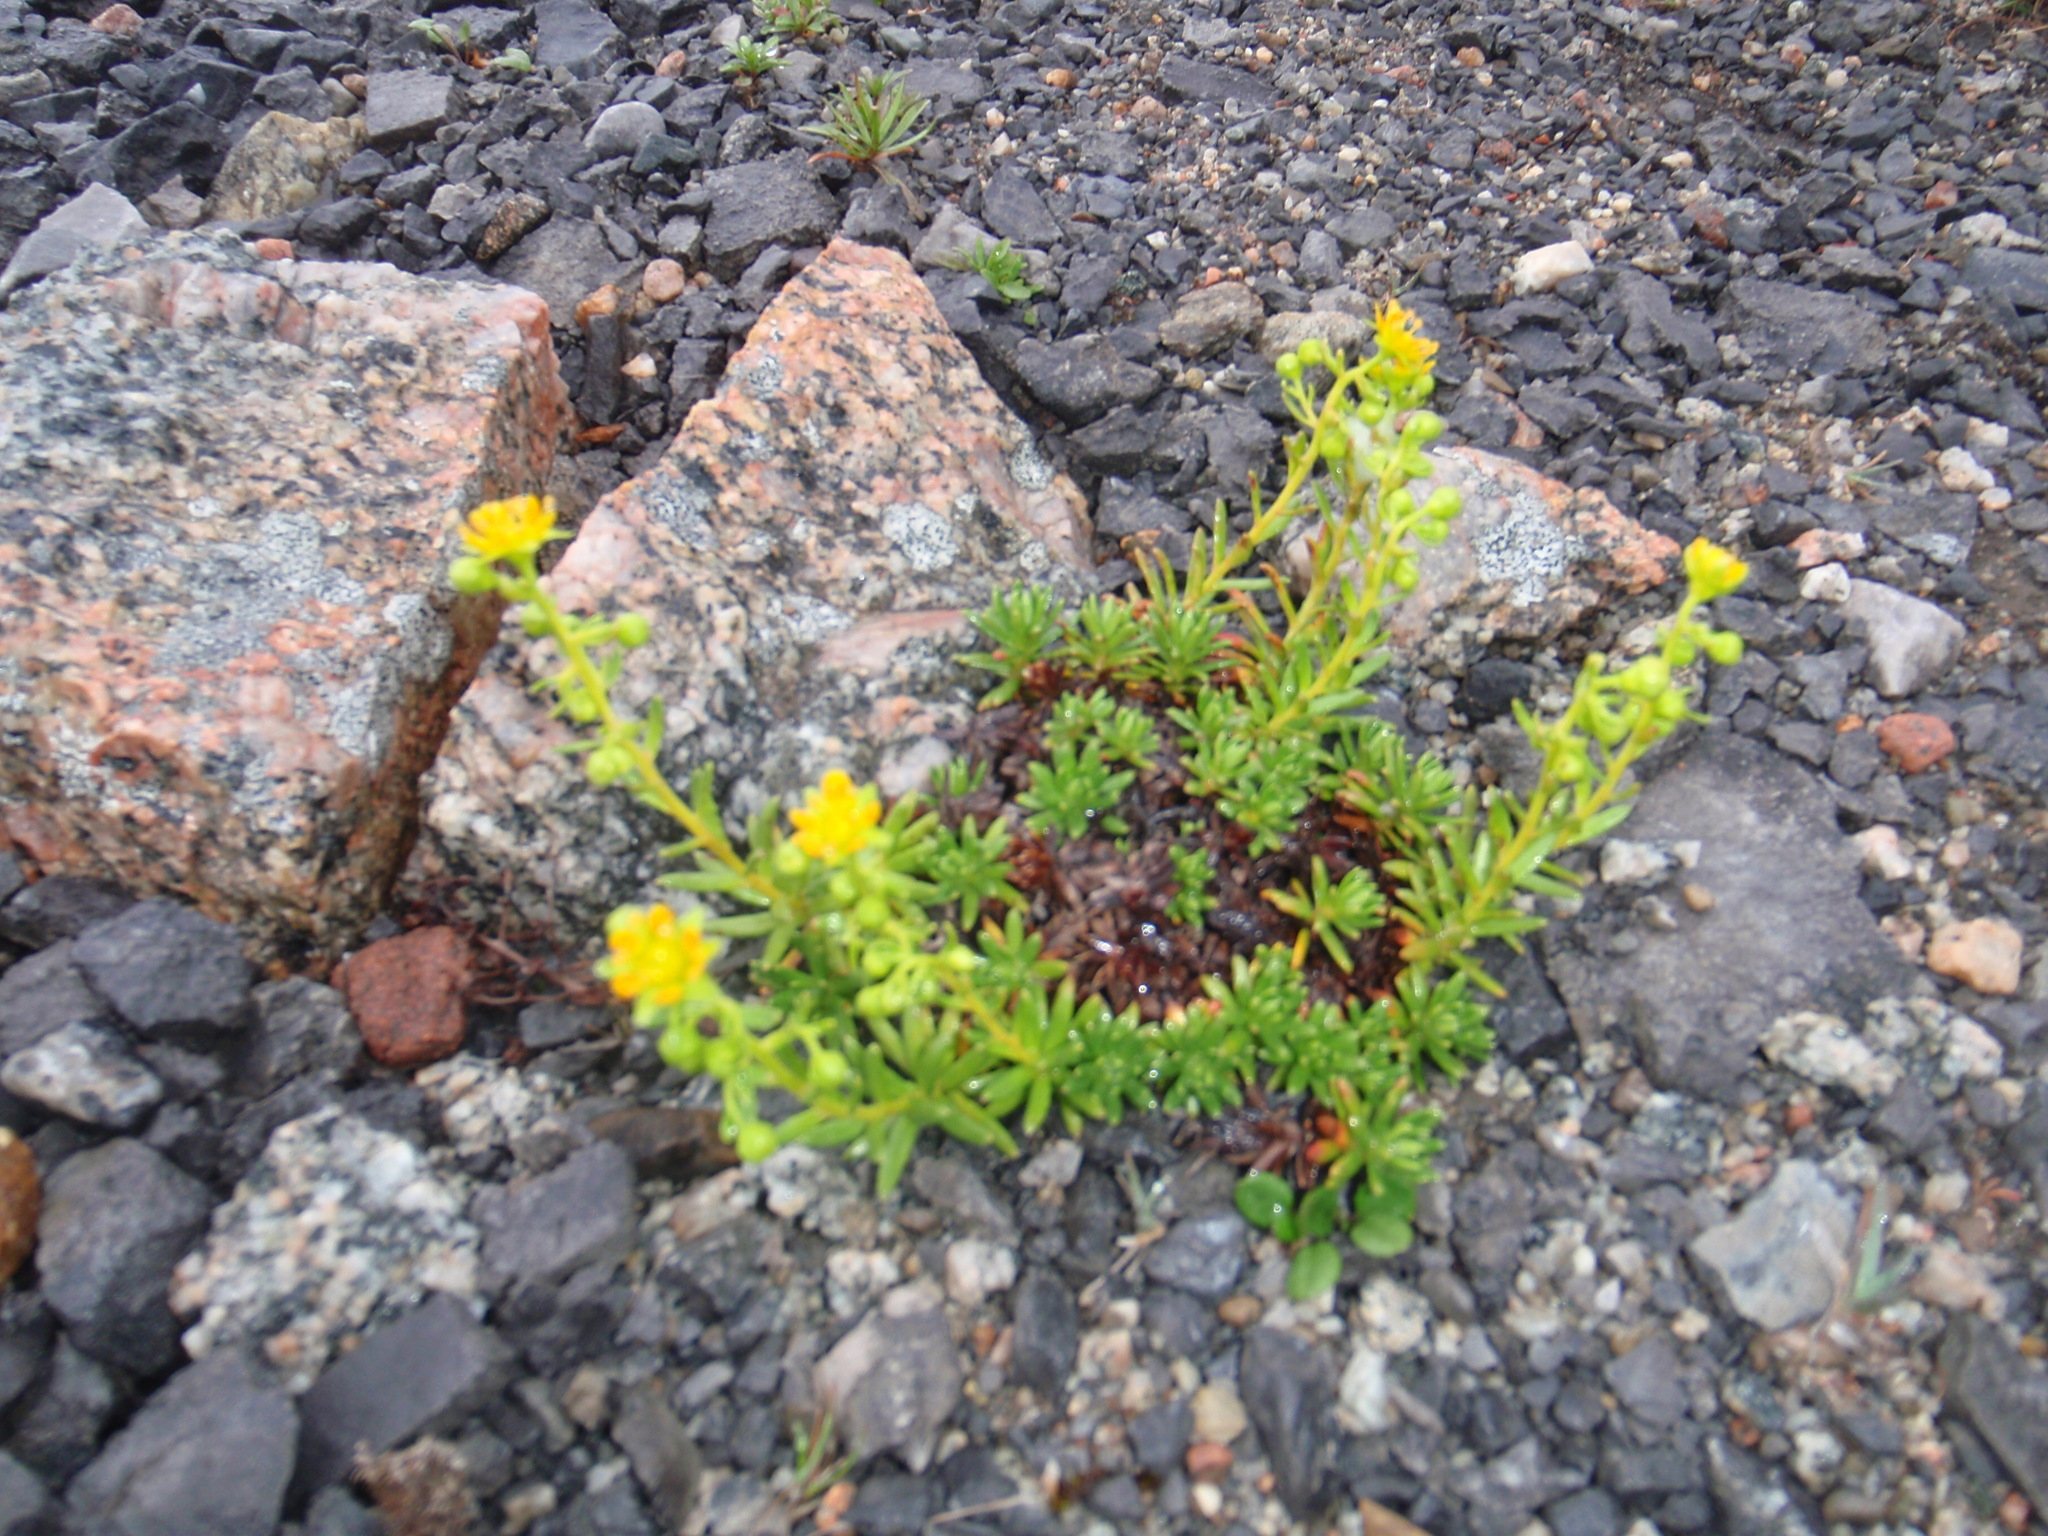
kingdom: Plantae
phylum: Tracheophyta
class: Magnoliopsida
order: Saxifragales
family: Saxifragaceae
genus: Saxifraga
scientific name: Saxifraga aizoides
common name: Yellow mountain saxifrage
